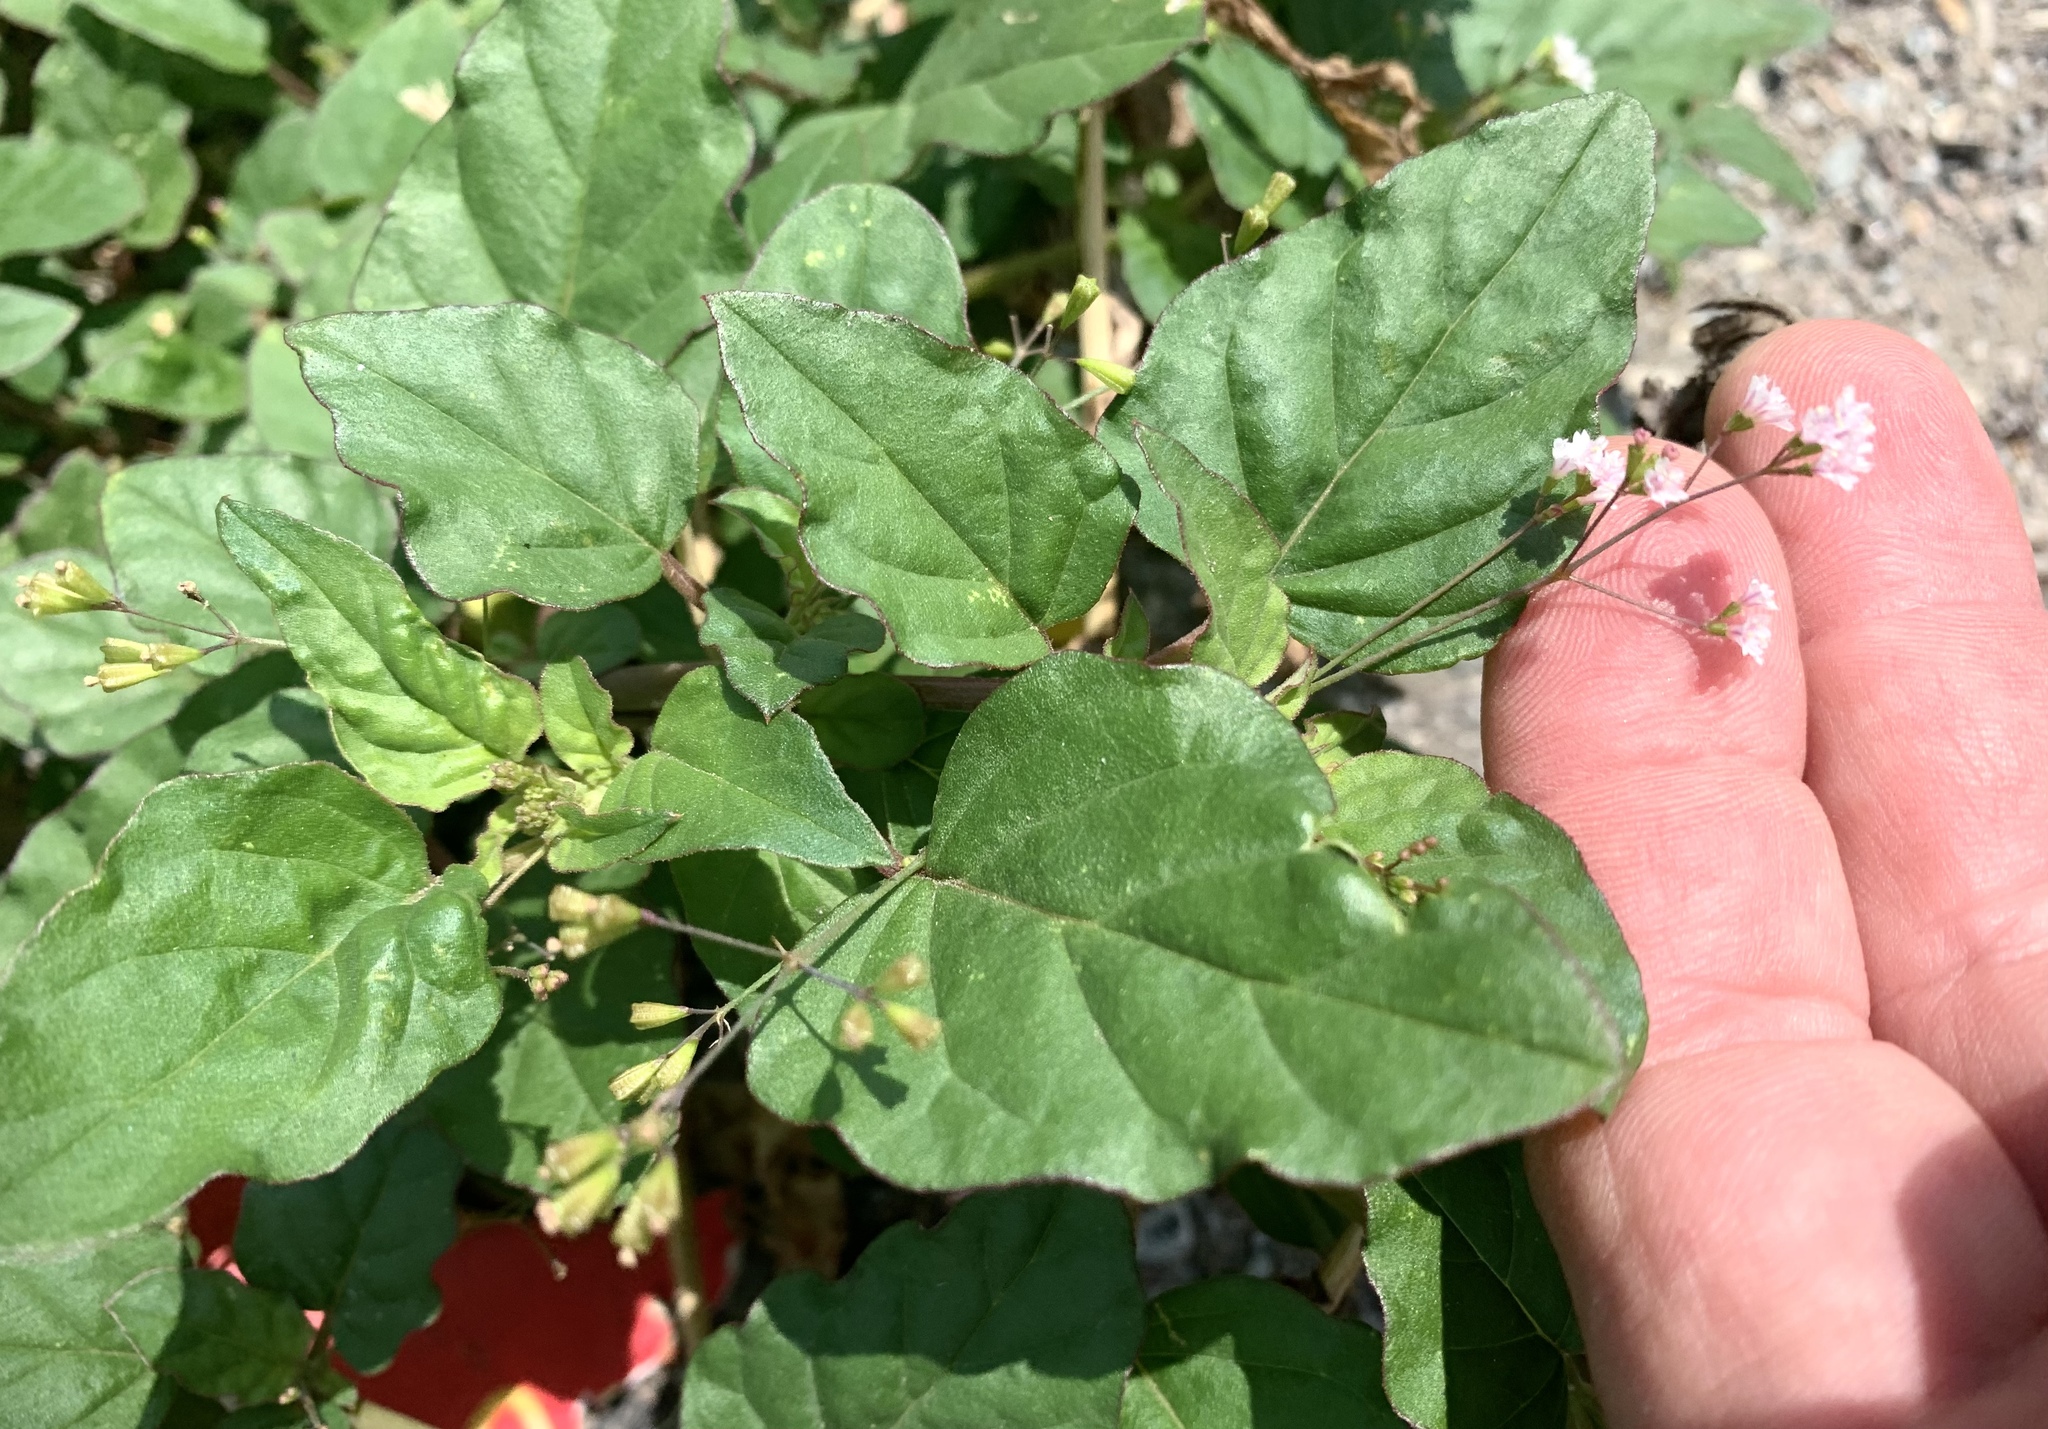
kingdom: Plantae
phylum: Tracheophyta
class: Magnoliopsida
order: Caryophyllales
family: Nyctaginaceae
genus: Boerhavia
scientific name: Boerhavia erecta
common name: Erect spiderling
